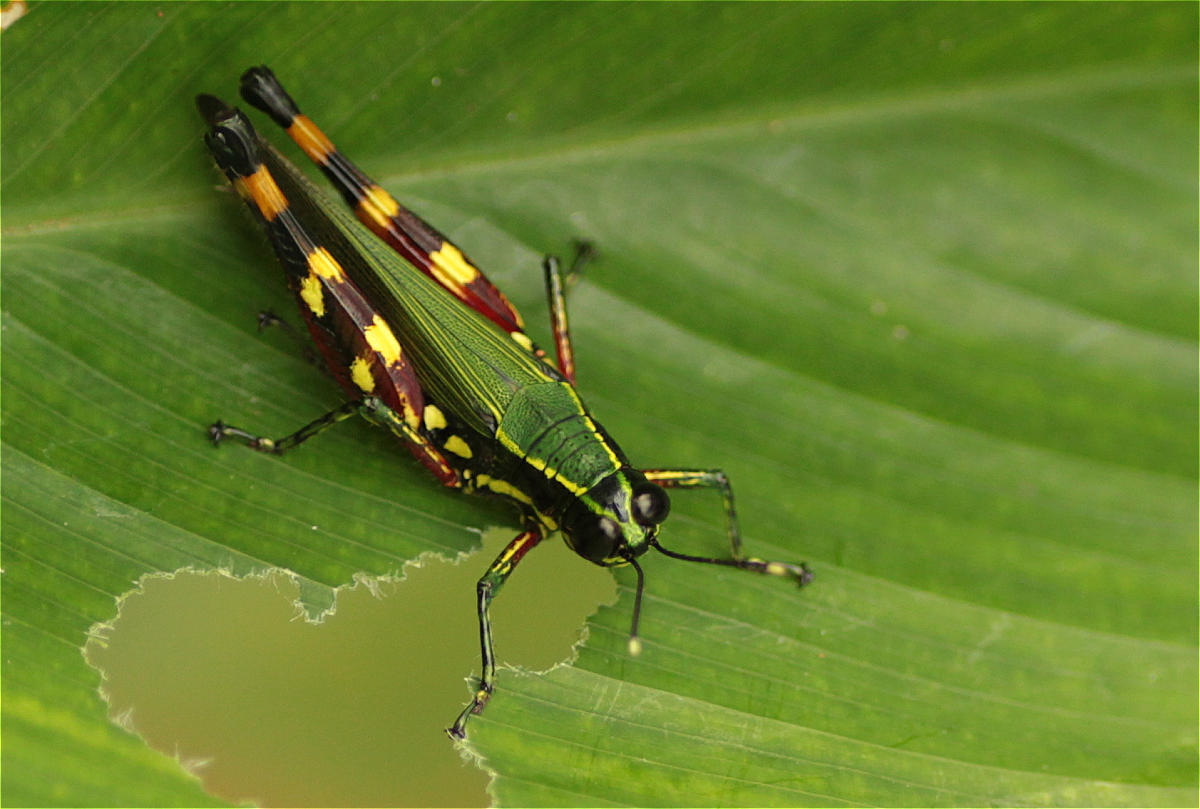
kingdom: Animalia
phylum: Arthropoda
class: Insecta
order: Orthoptera
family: Acrididae
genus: Tetrataenia
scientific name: Tetrataenia surinama
